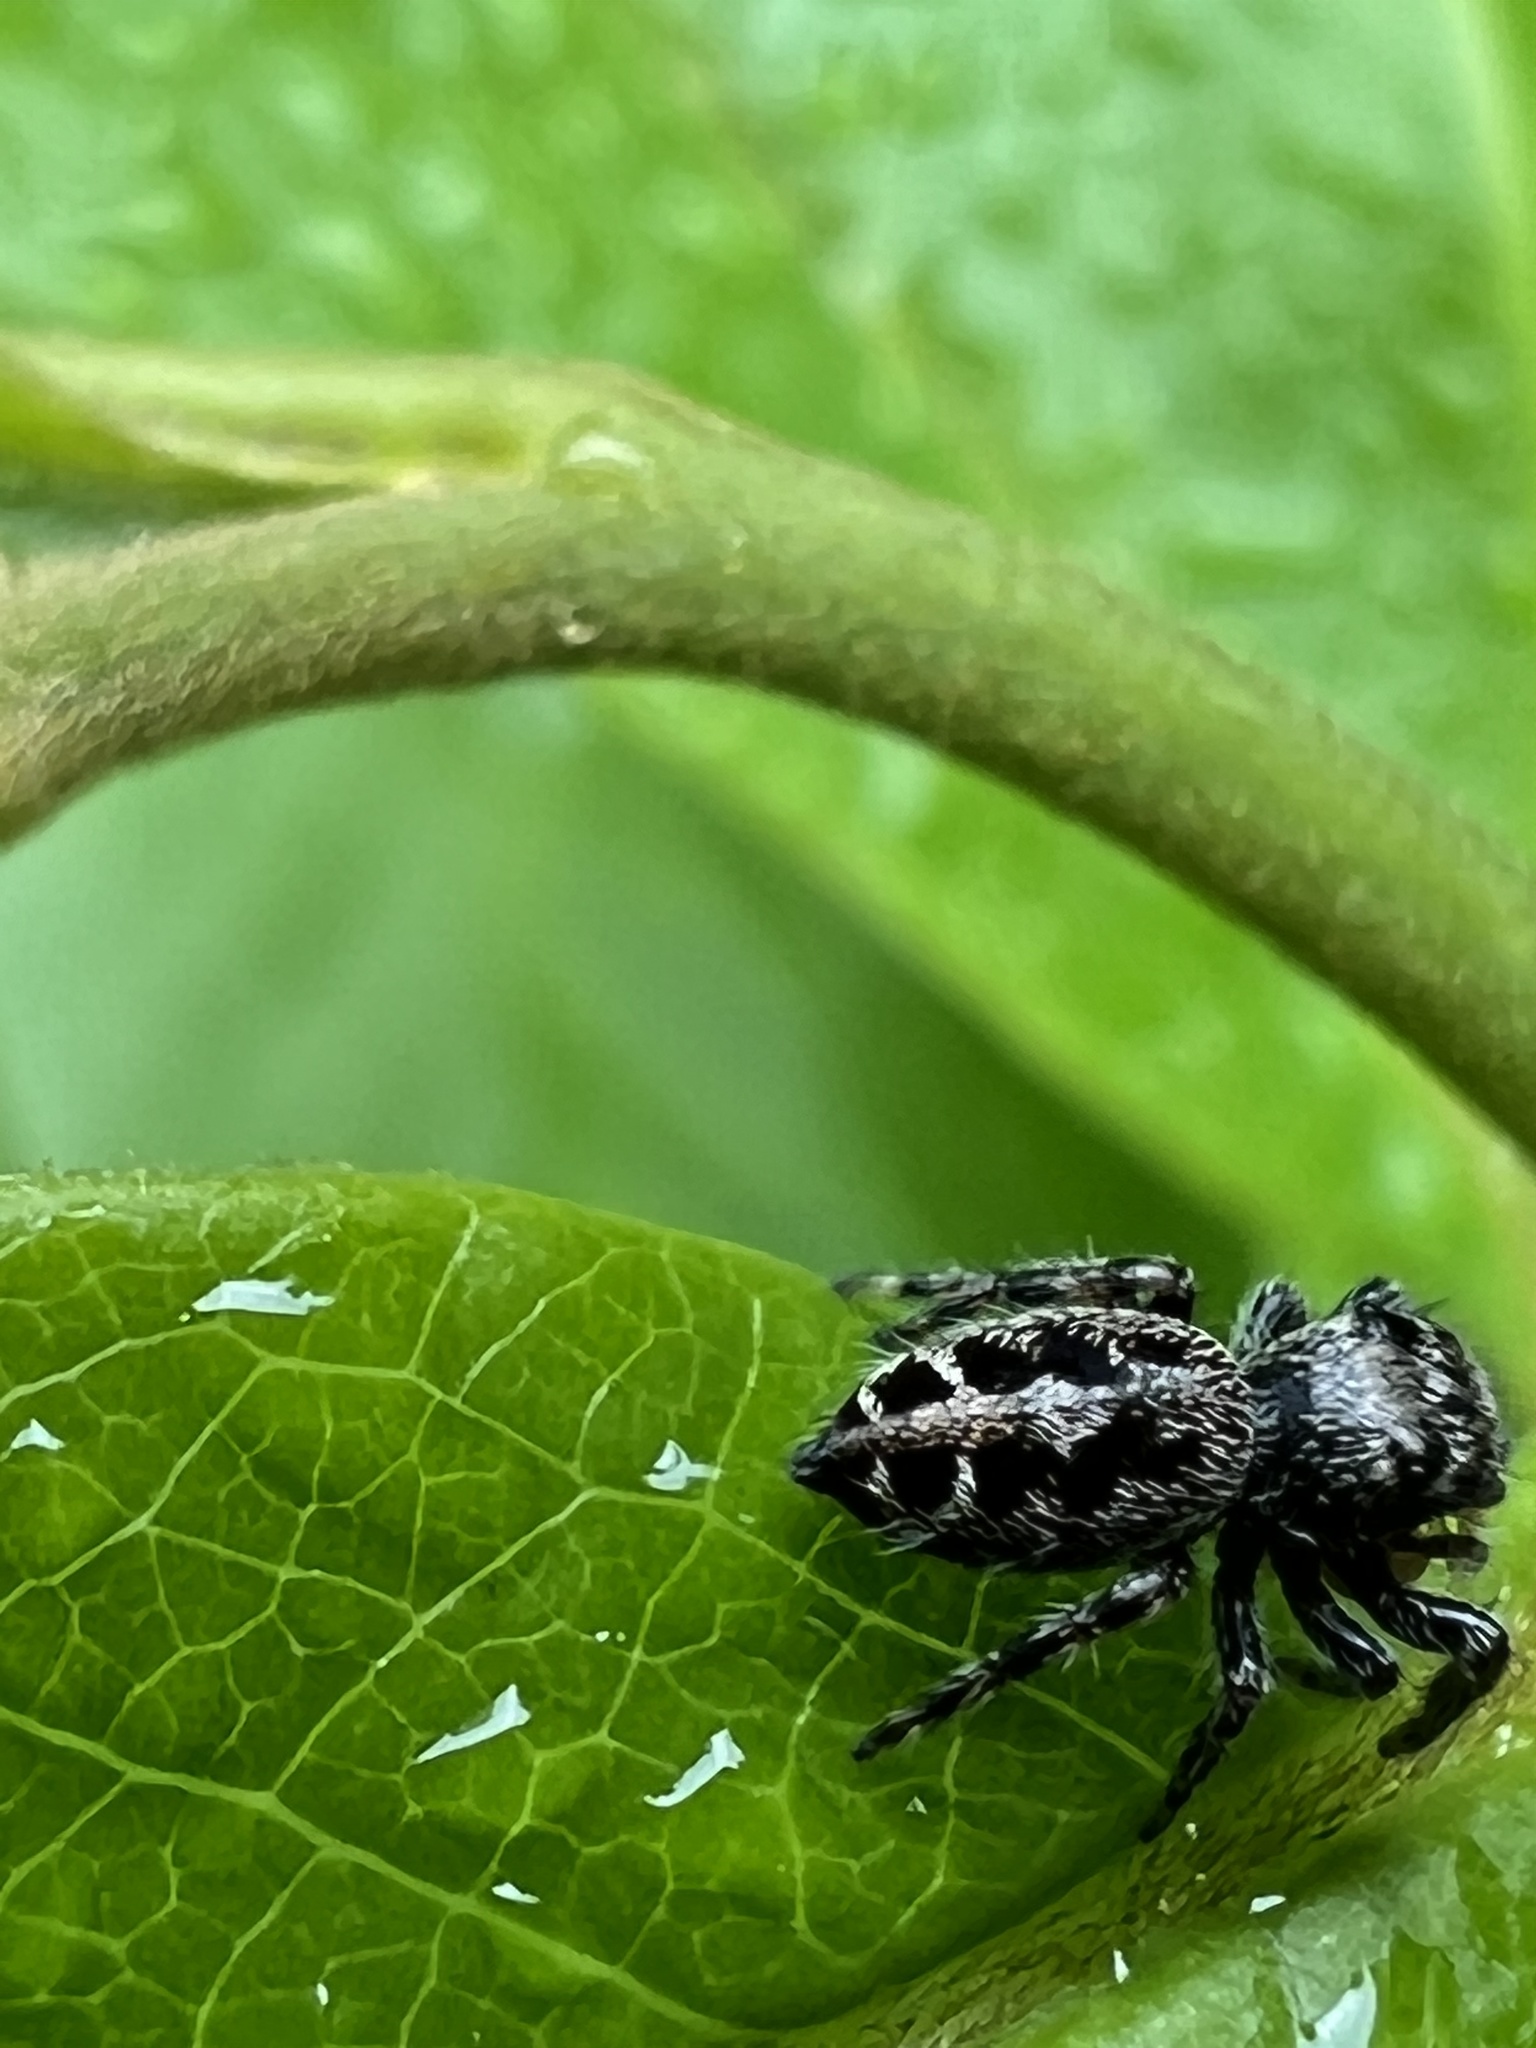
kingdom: Animalia
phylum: Arthropoda
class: Arachnida
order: Araneae
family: Salticidae
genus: Phidippus
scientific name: Phidippus putnami
